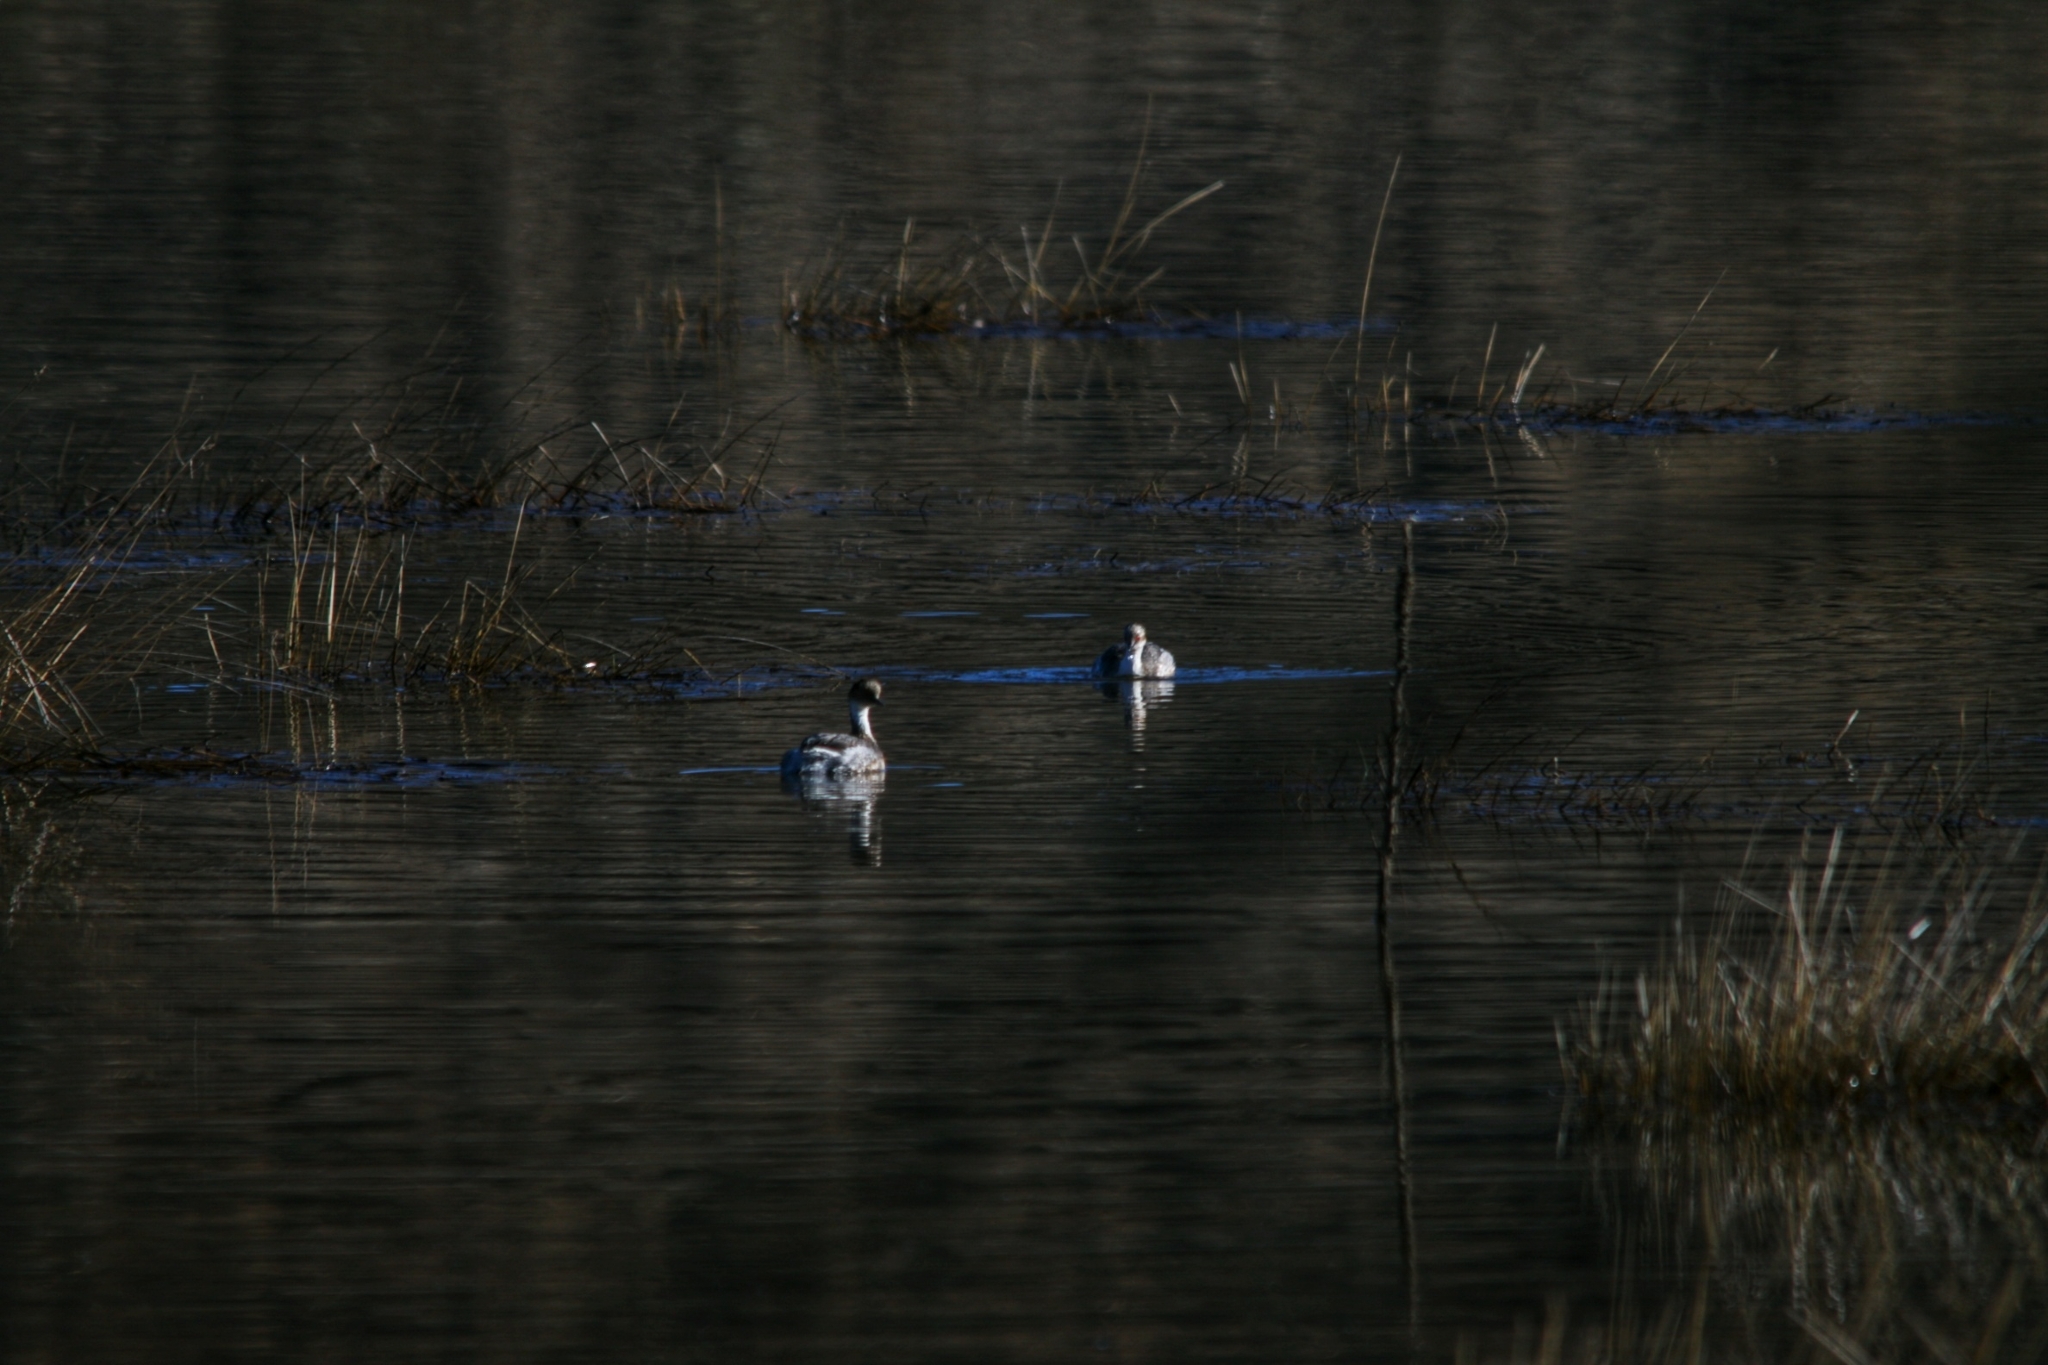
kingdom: Animalia
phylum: Chordata
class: Aves
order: Podicipediformes
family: Podicipedidae
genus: Podiceps
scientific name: Podiceps occipitalis
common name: Silvery grebe
